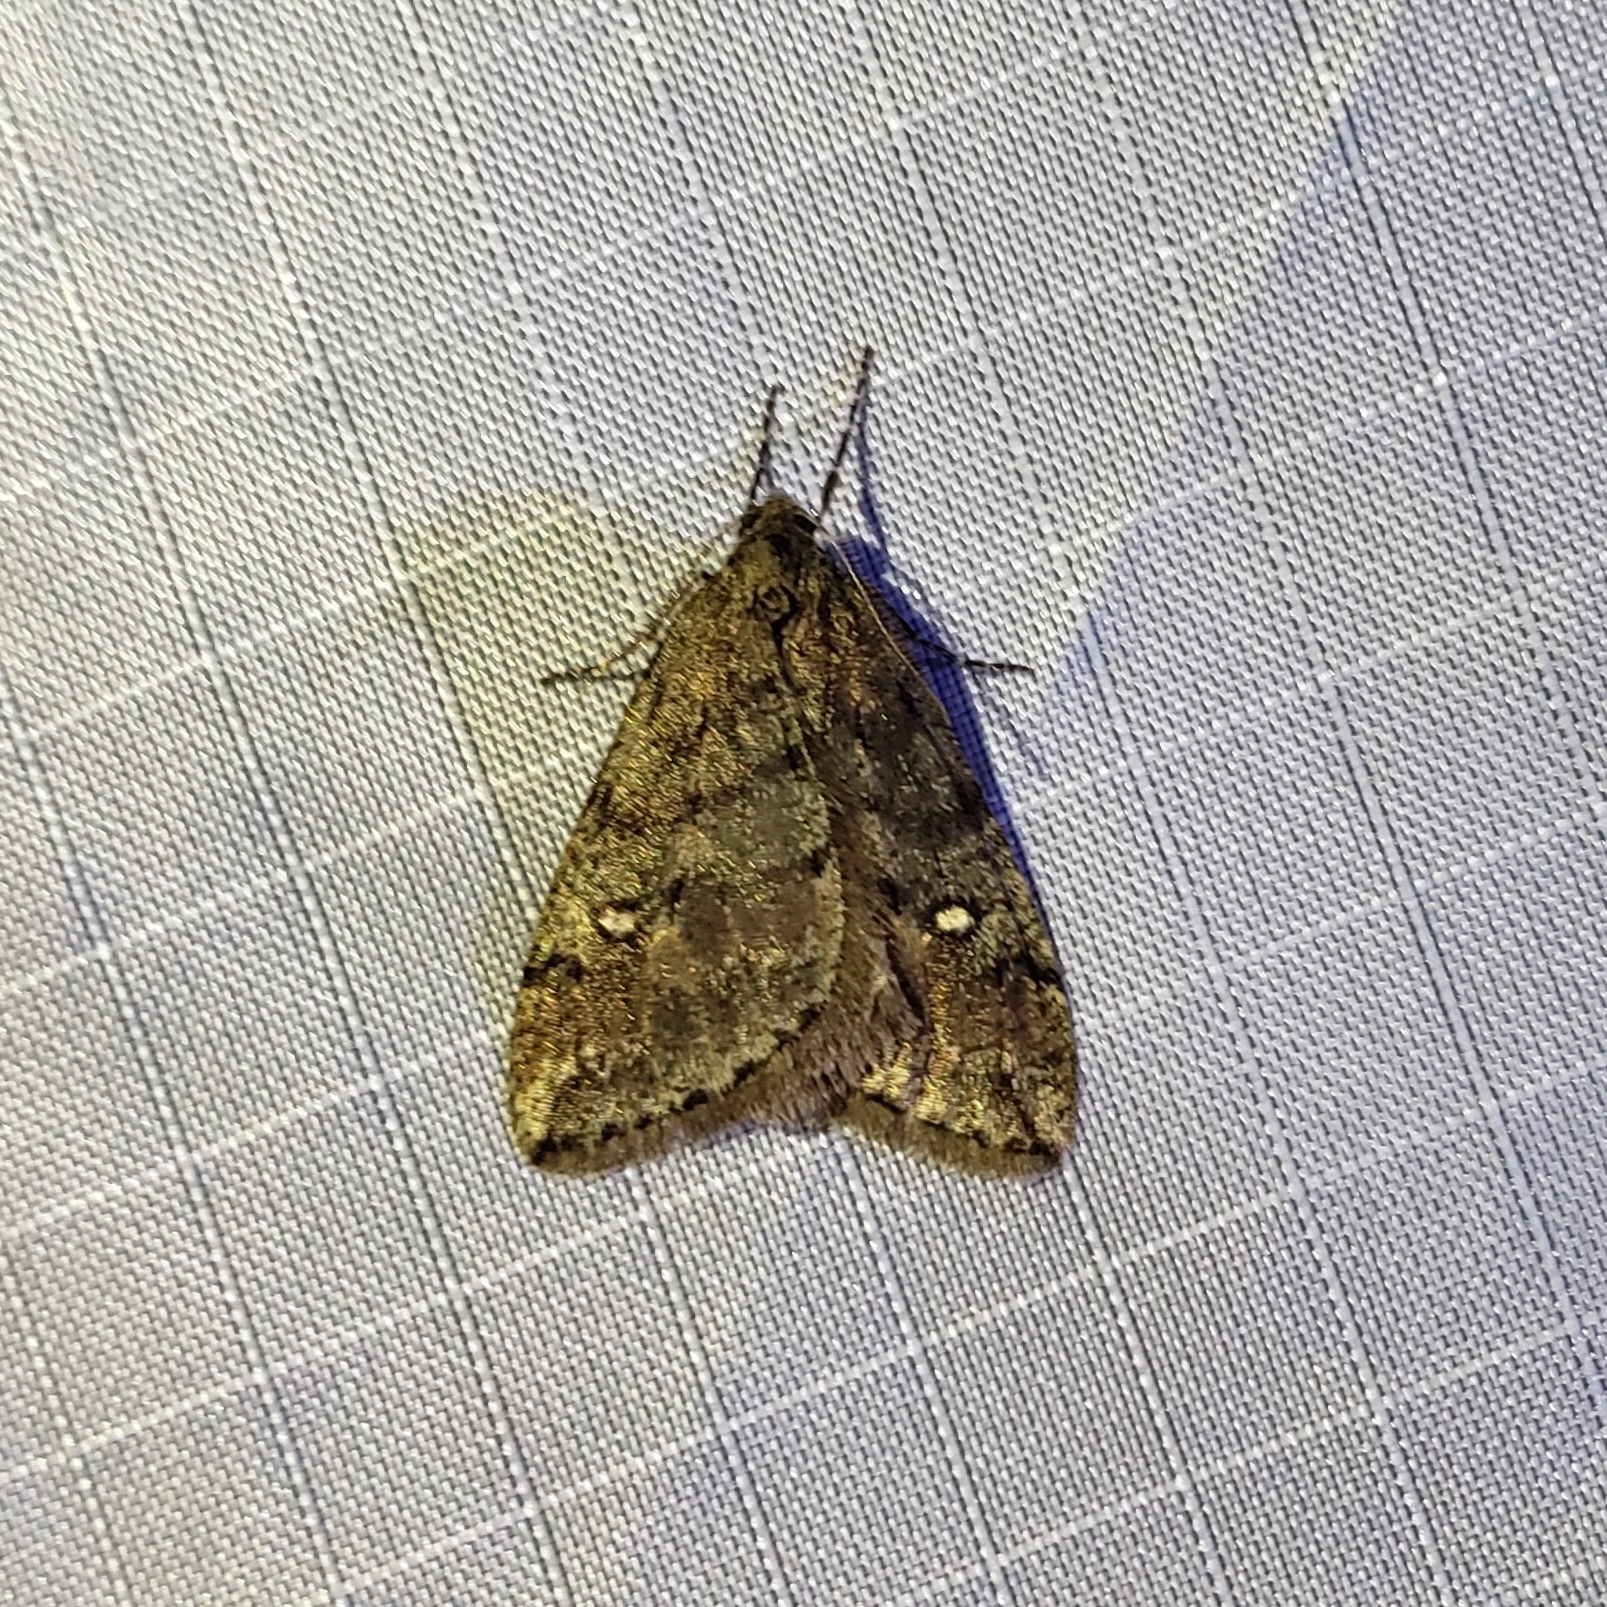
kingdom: Animalia
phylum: Arthropoda
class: Insecta
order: Lepidoptera
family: Geometridae
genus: Paleacrita
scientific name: Paleacrita merriccata
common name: White-spotted canker worm
